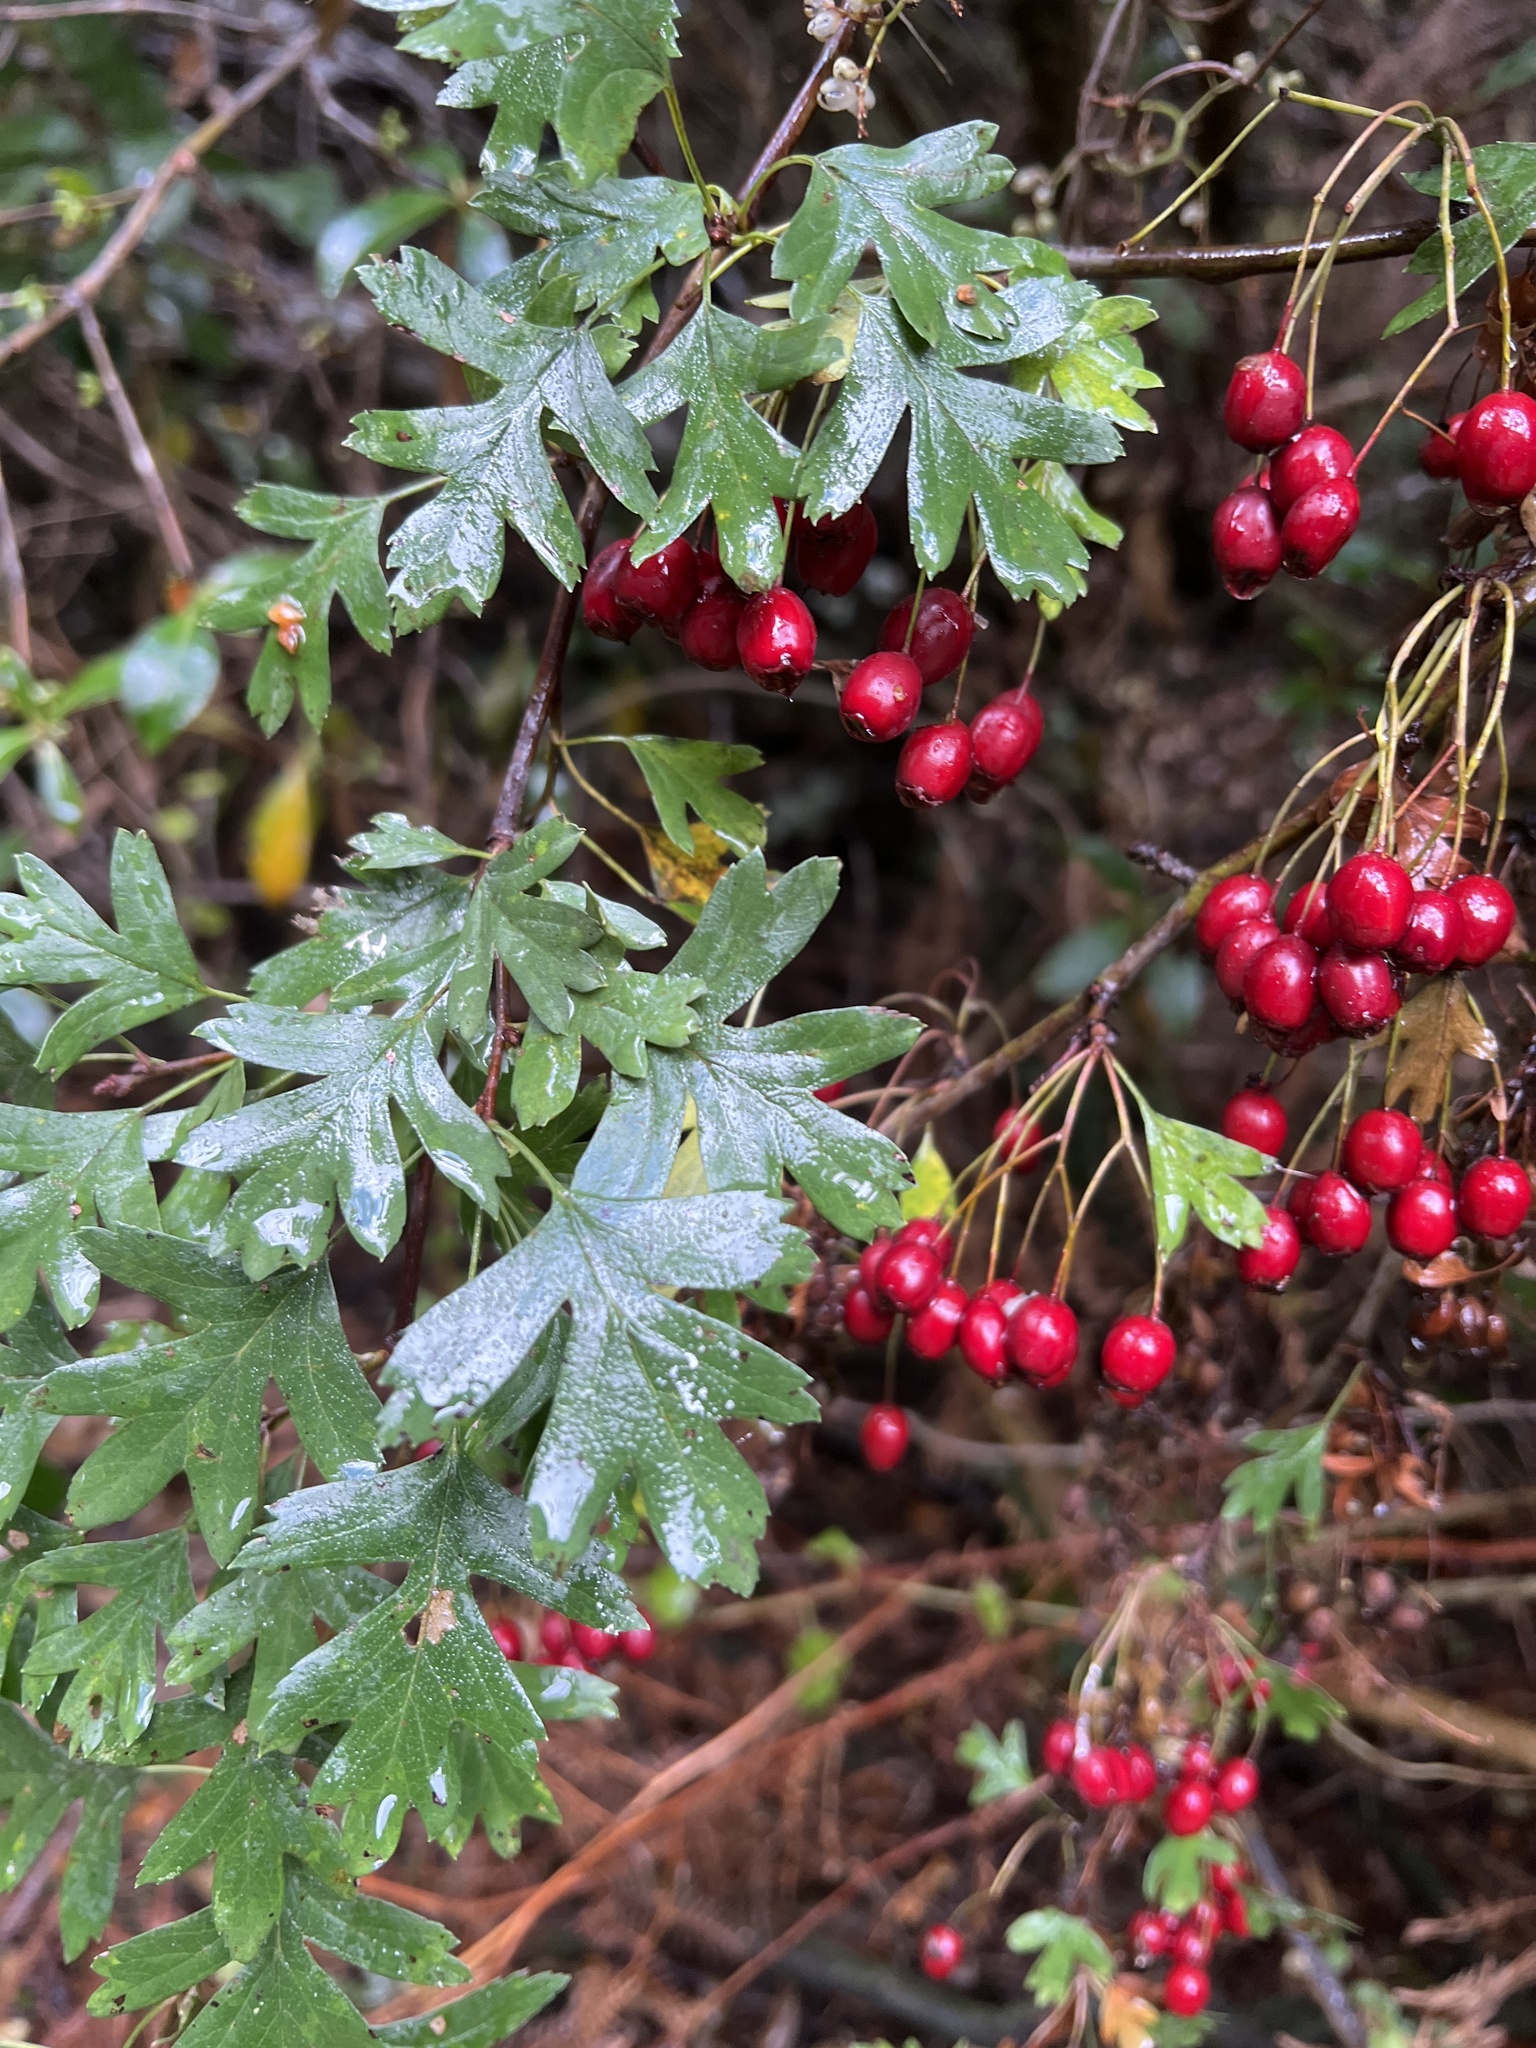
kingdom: Plantae
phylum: Tracheophyta
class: Magnoliopsida
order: Rosales
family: Rosaceae
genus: Crataegus
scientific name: Crataegus monogyna
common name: Hawthorn
